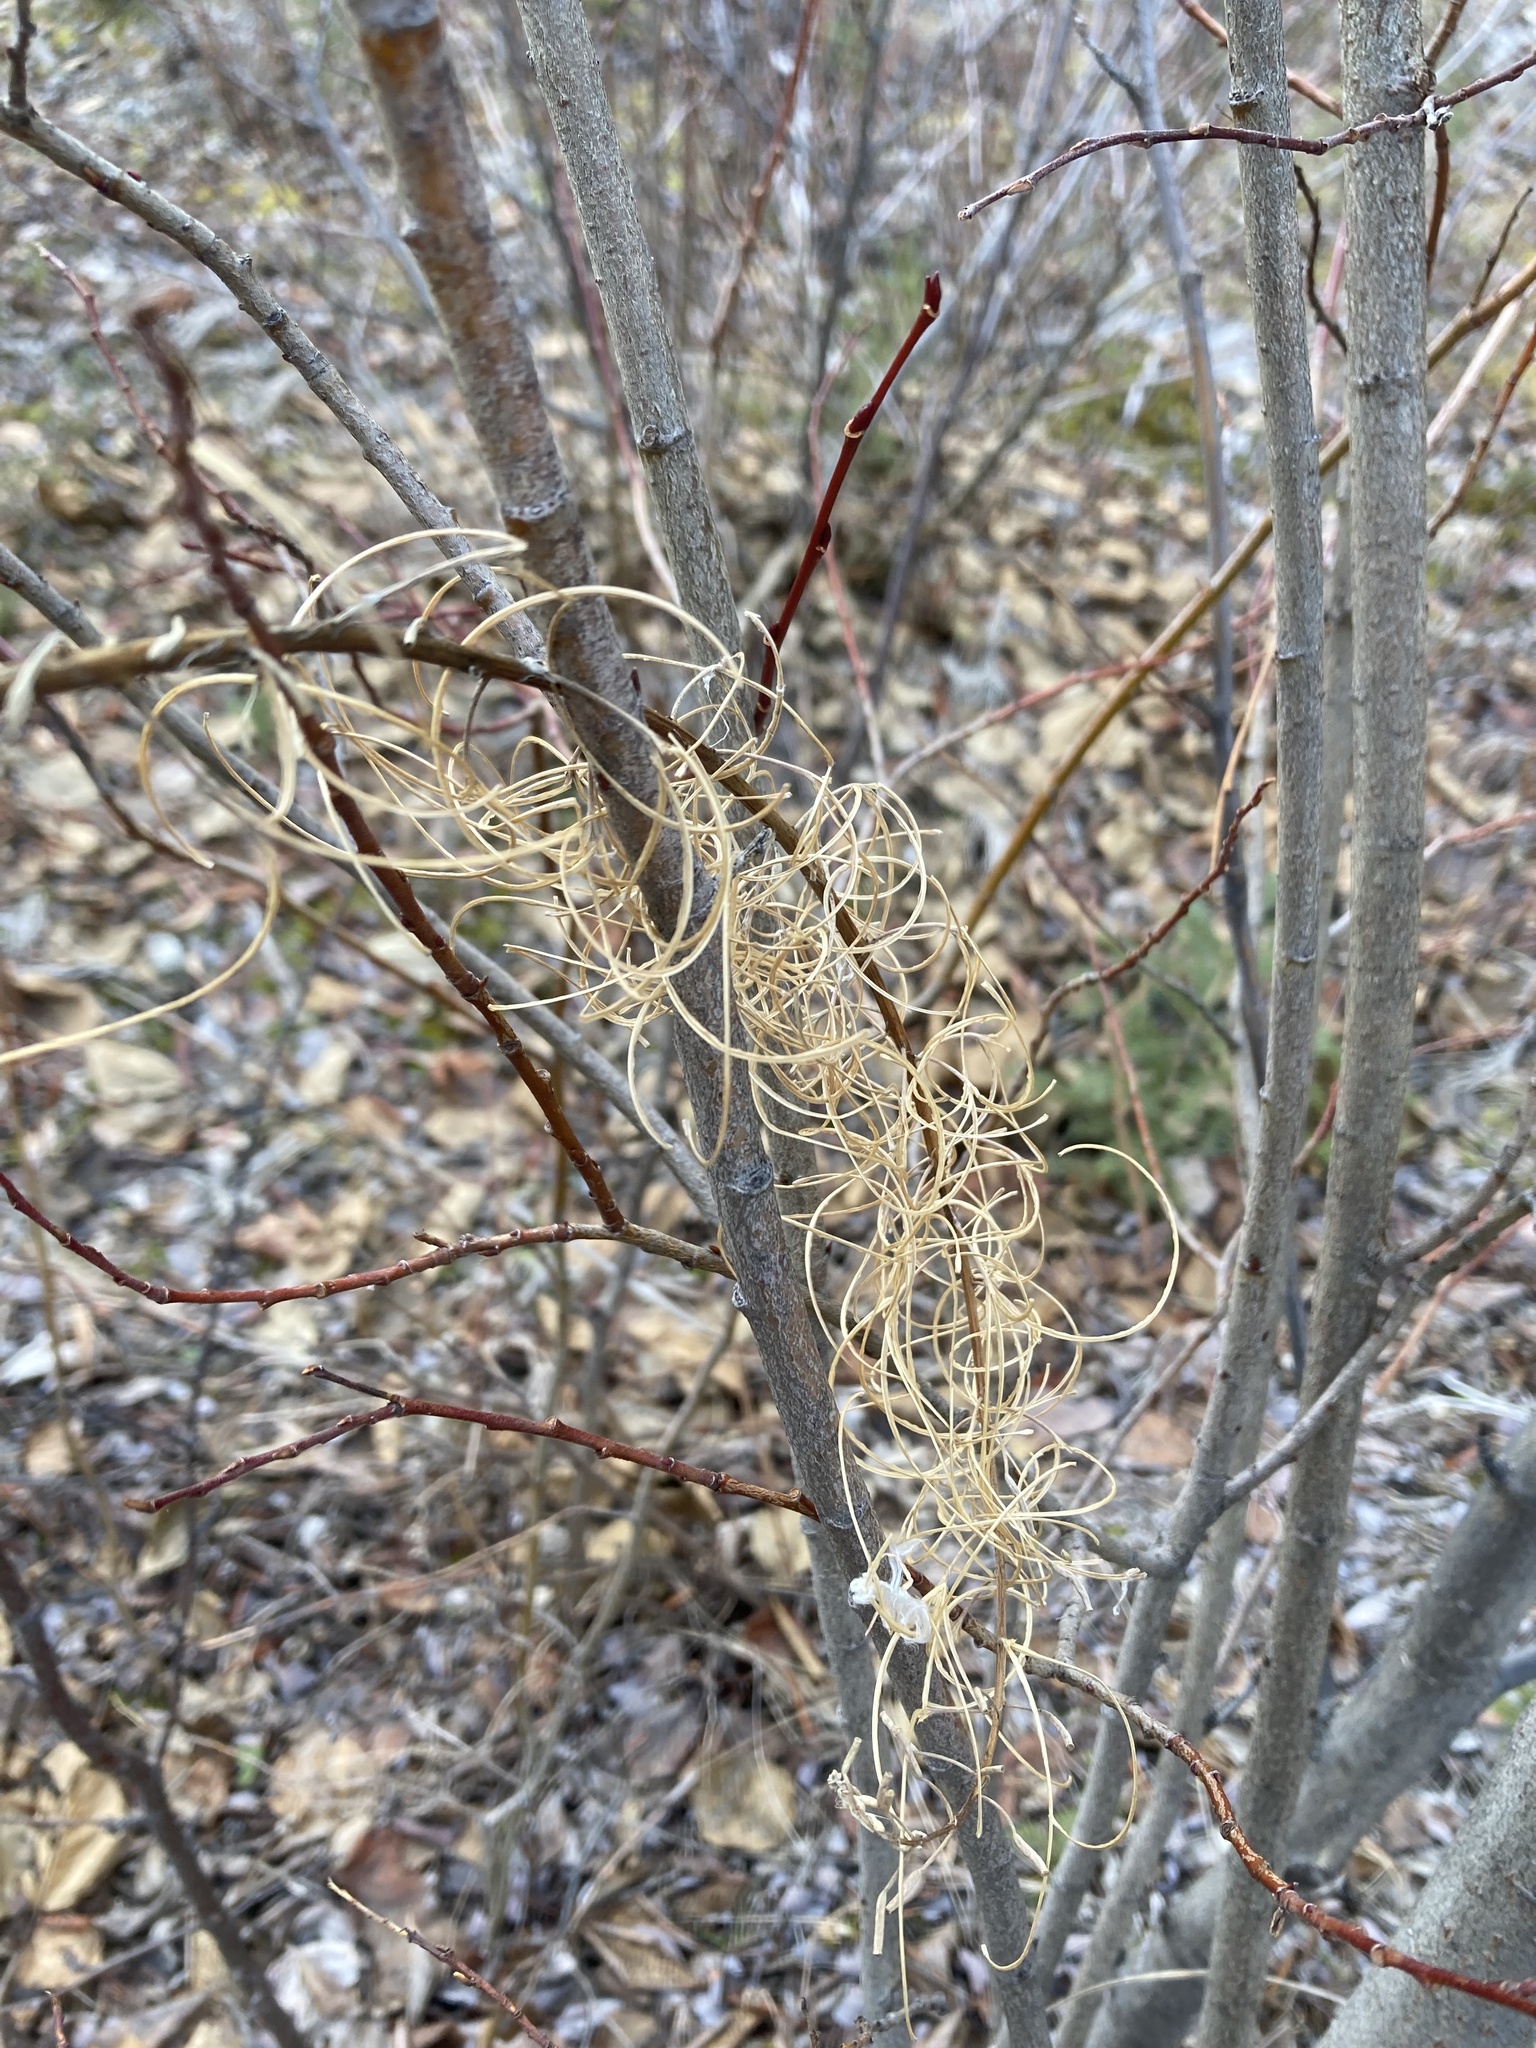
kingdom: Plantae
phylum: Tracheophyta
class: Magnoliopsida
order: Myrtales
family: Onagraceae
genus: Chamaenerion
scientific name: Chamaenerion angustifolium
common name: Fireweed
